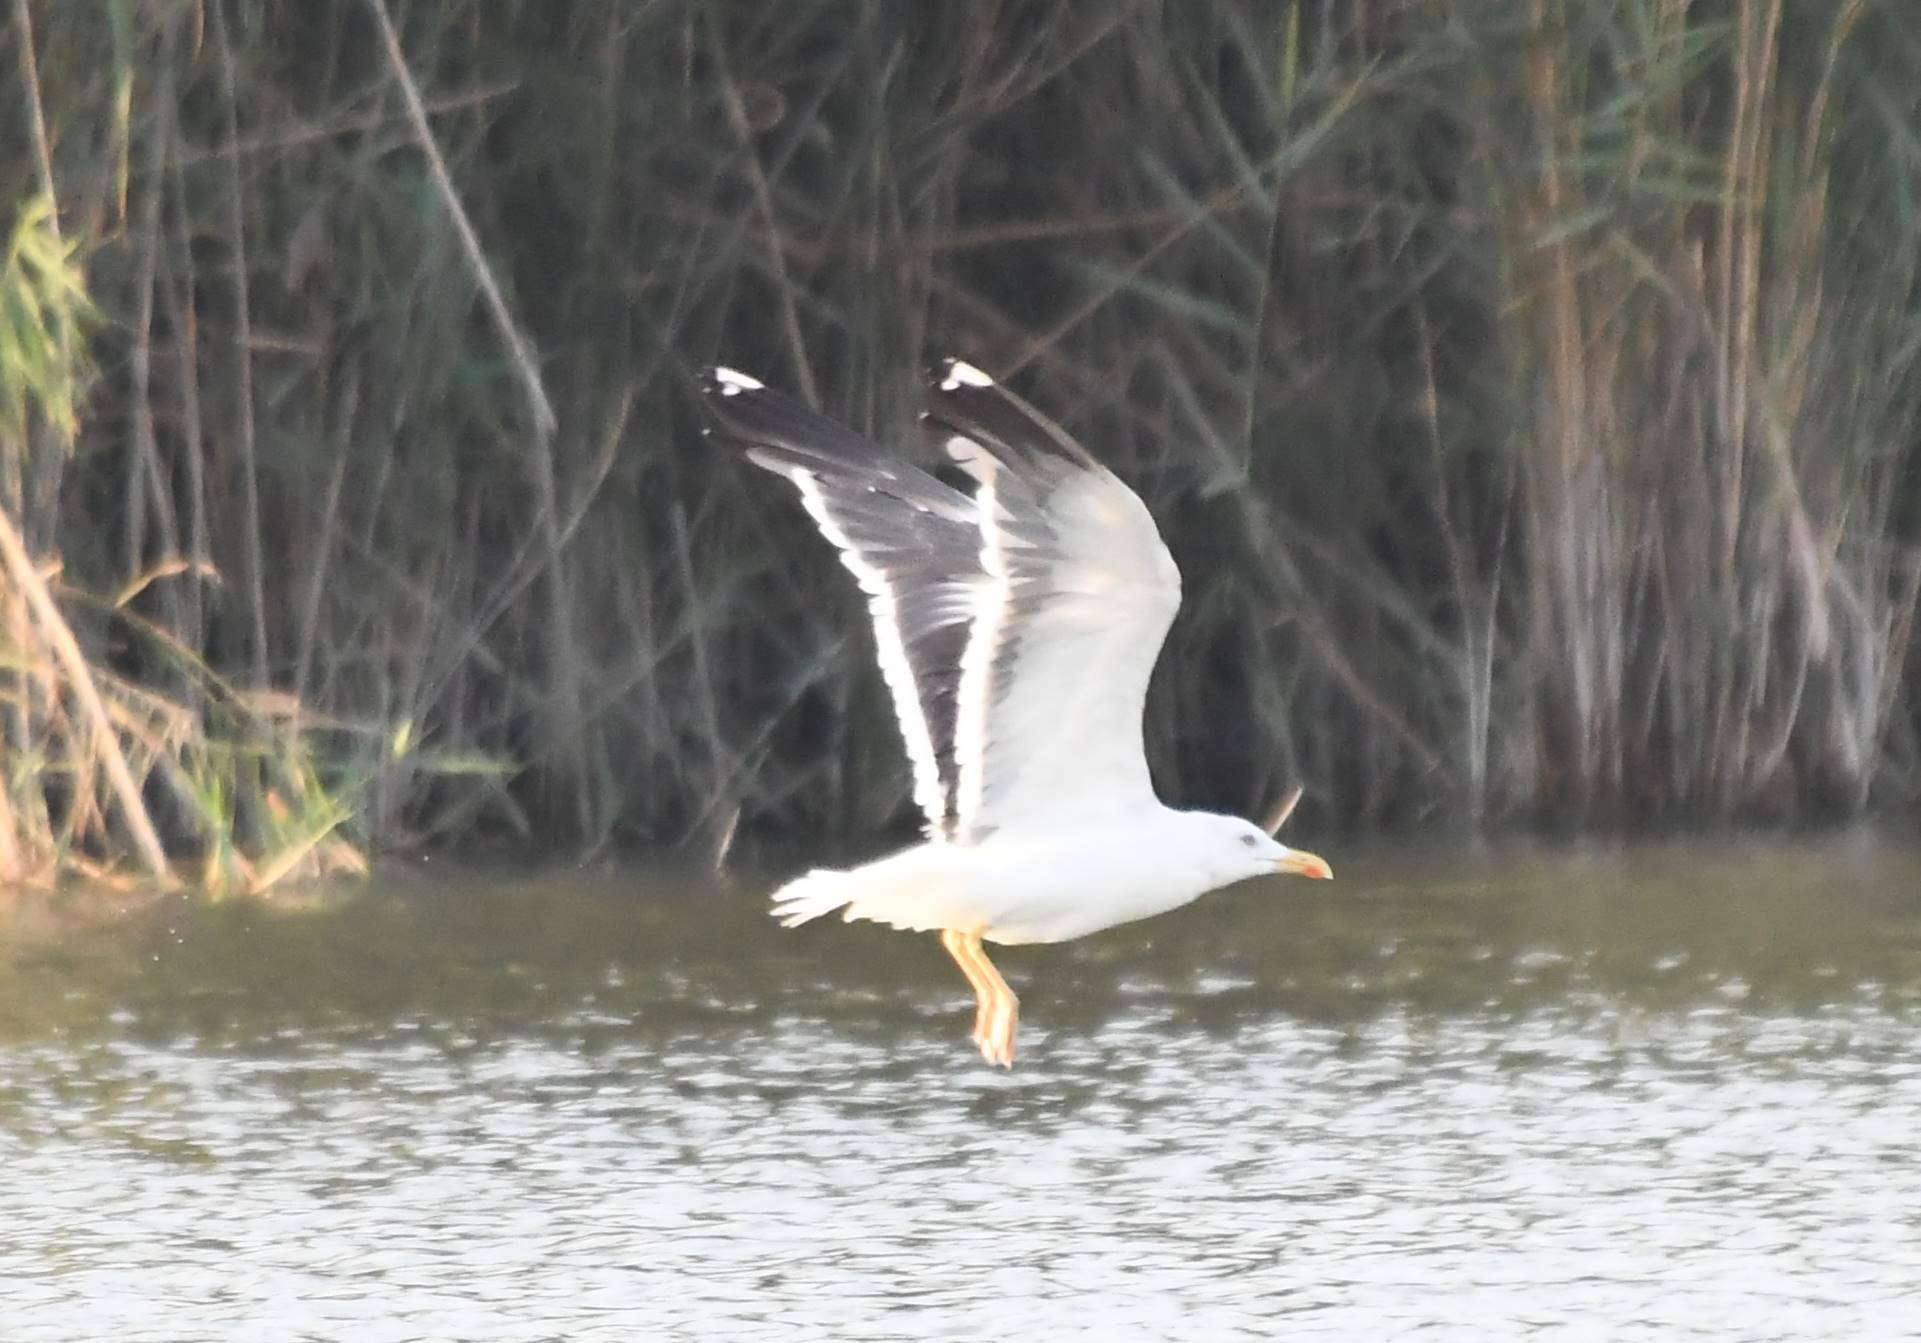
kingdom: Animalia
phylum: Chordata
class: Aves
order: Charadriiformes
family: Laridae
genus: Larus
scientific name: Larus michahellis
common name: Yellow-legged gull
